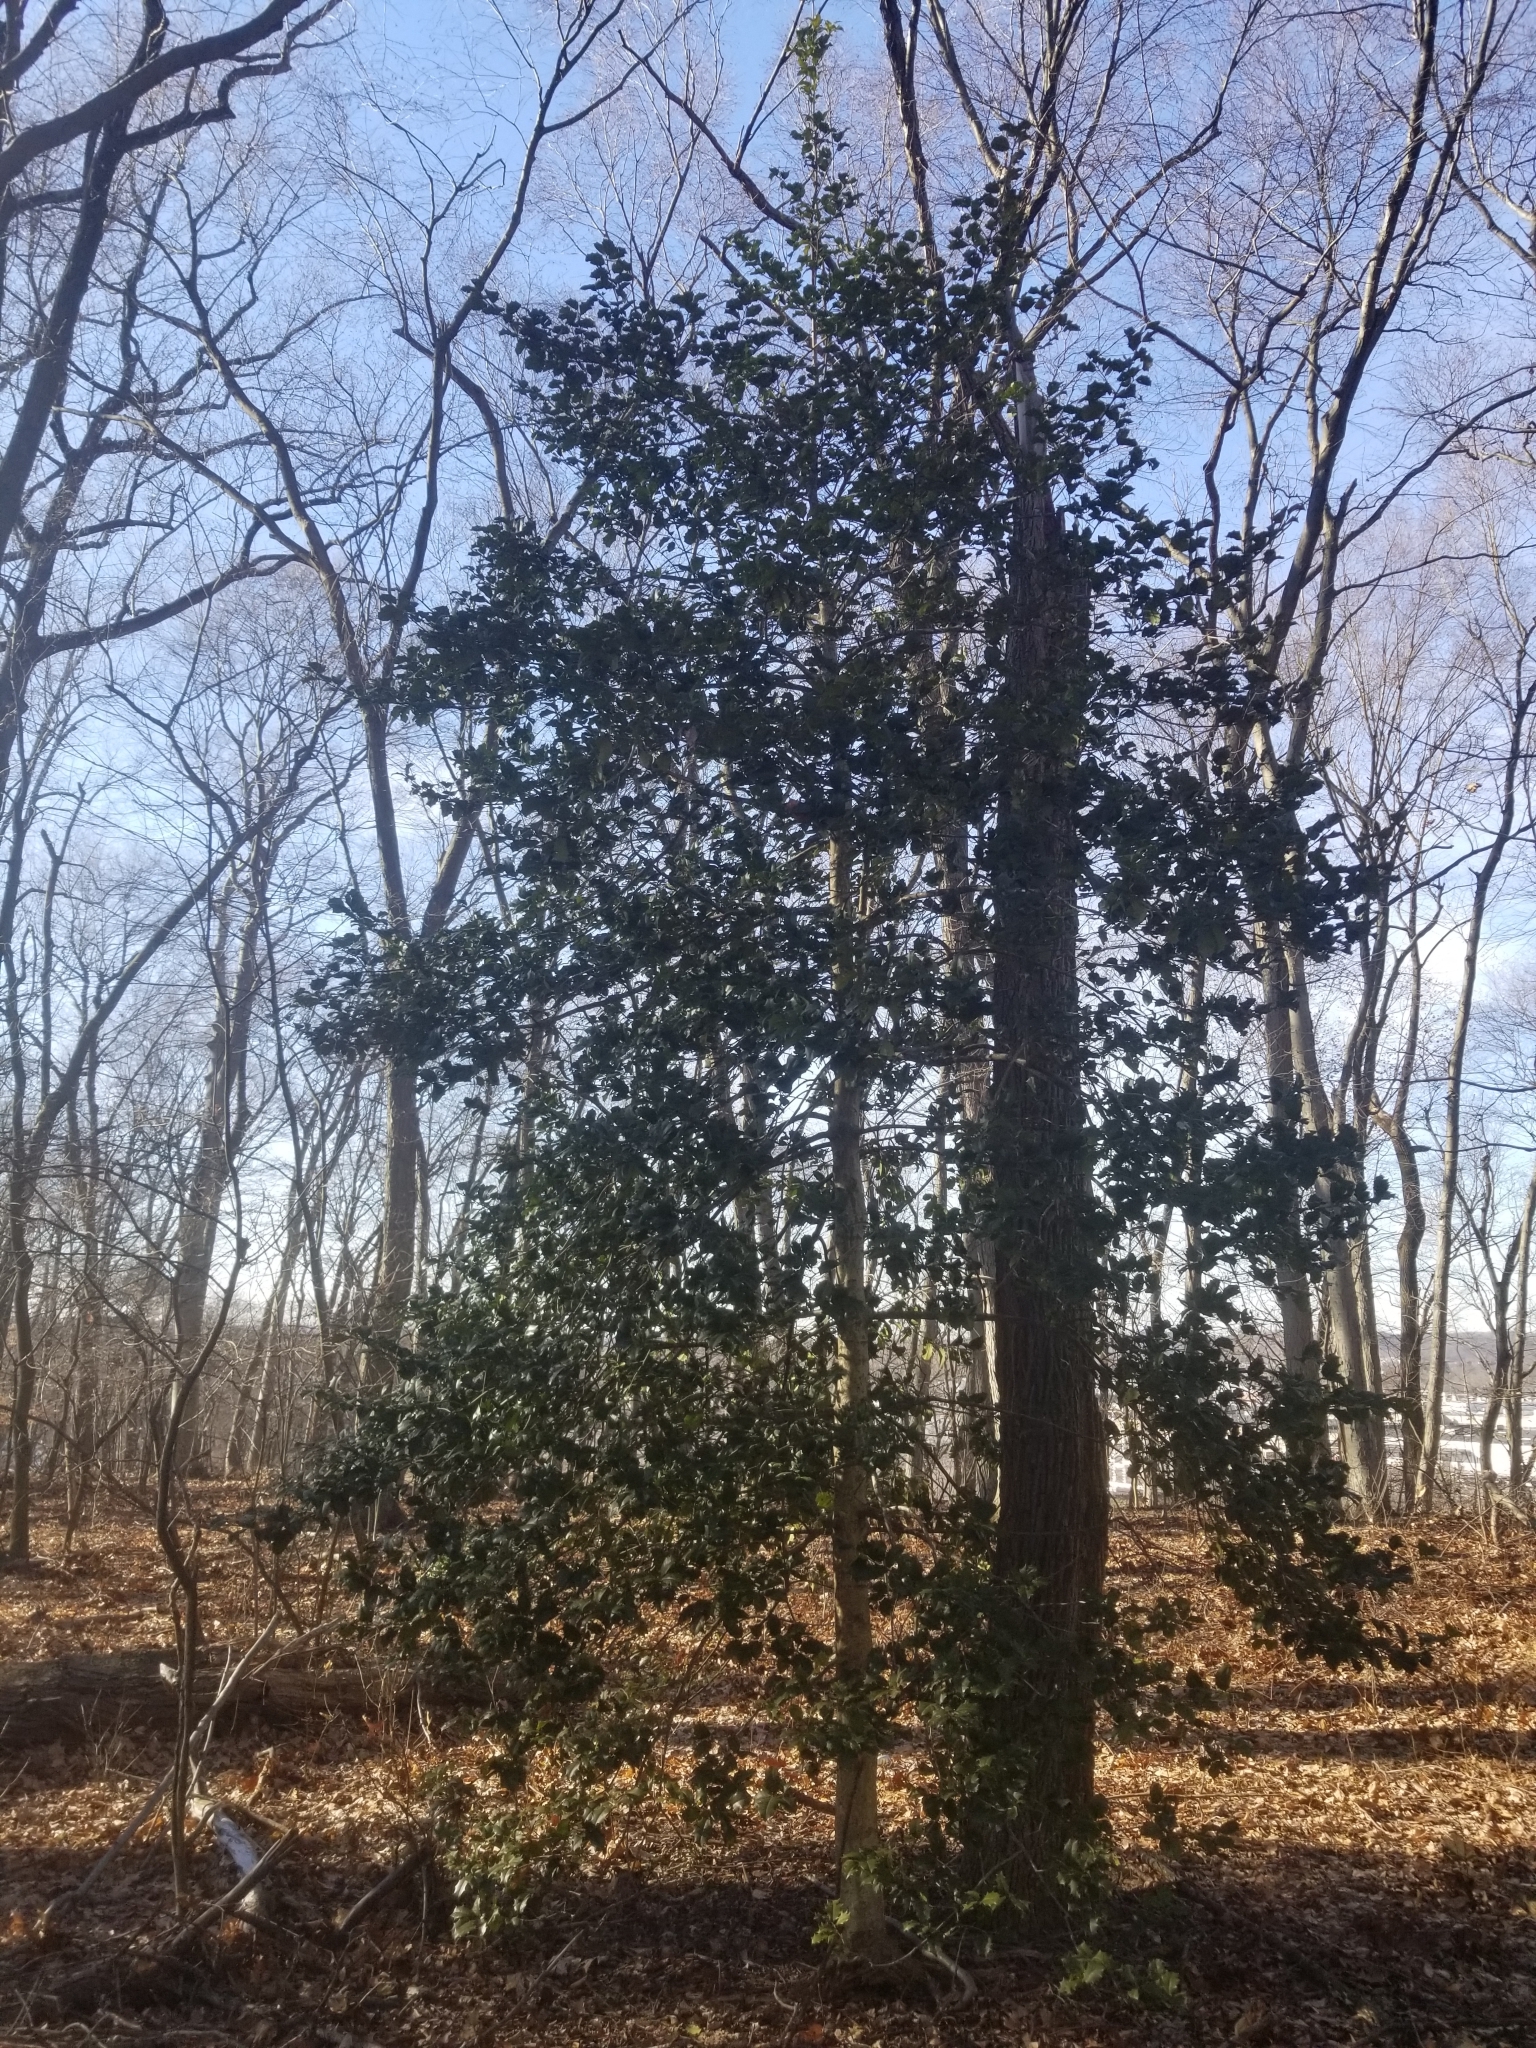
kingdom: Plantae
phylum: Tracheophyta
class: Magnoliopsida
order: Aquifoliales
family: Aquifoliaceae
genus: Ilex
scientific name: Ilex opaca
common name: American holly
